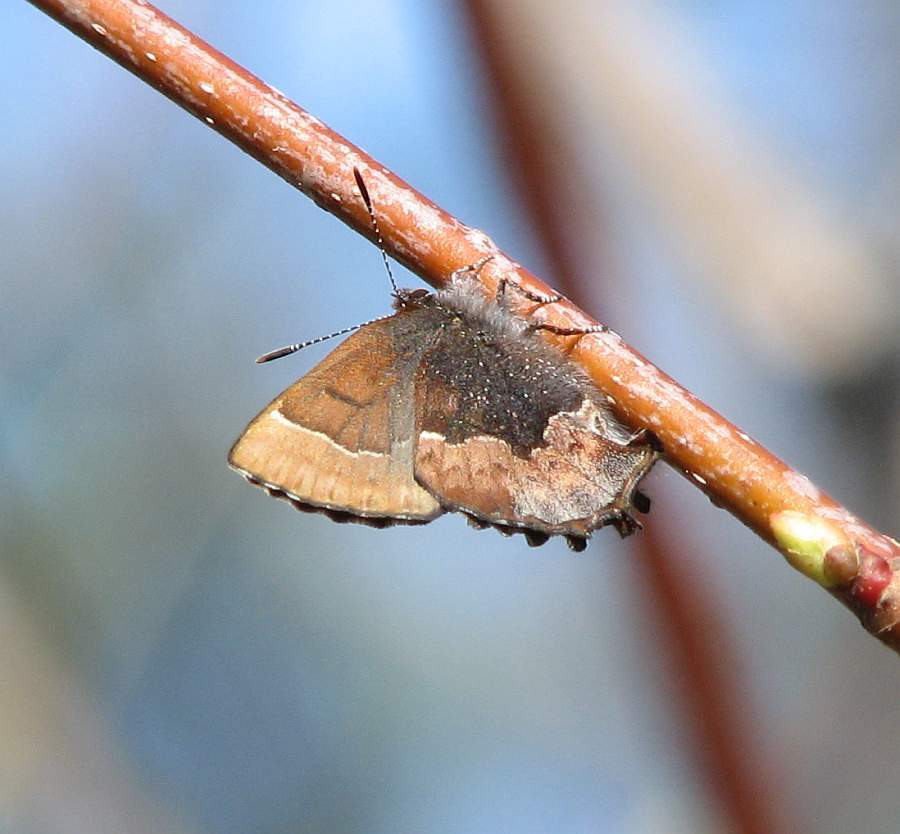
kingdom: Animalia
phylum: Arthropoda
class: Insecta
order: Lepidoptera
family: Lycaenidae
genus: Incisalia
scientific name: Incisalia henrici
